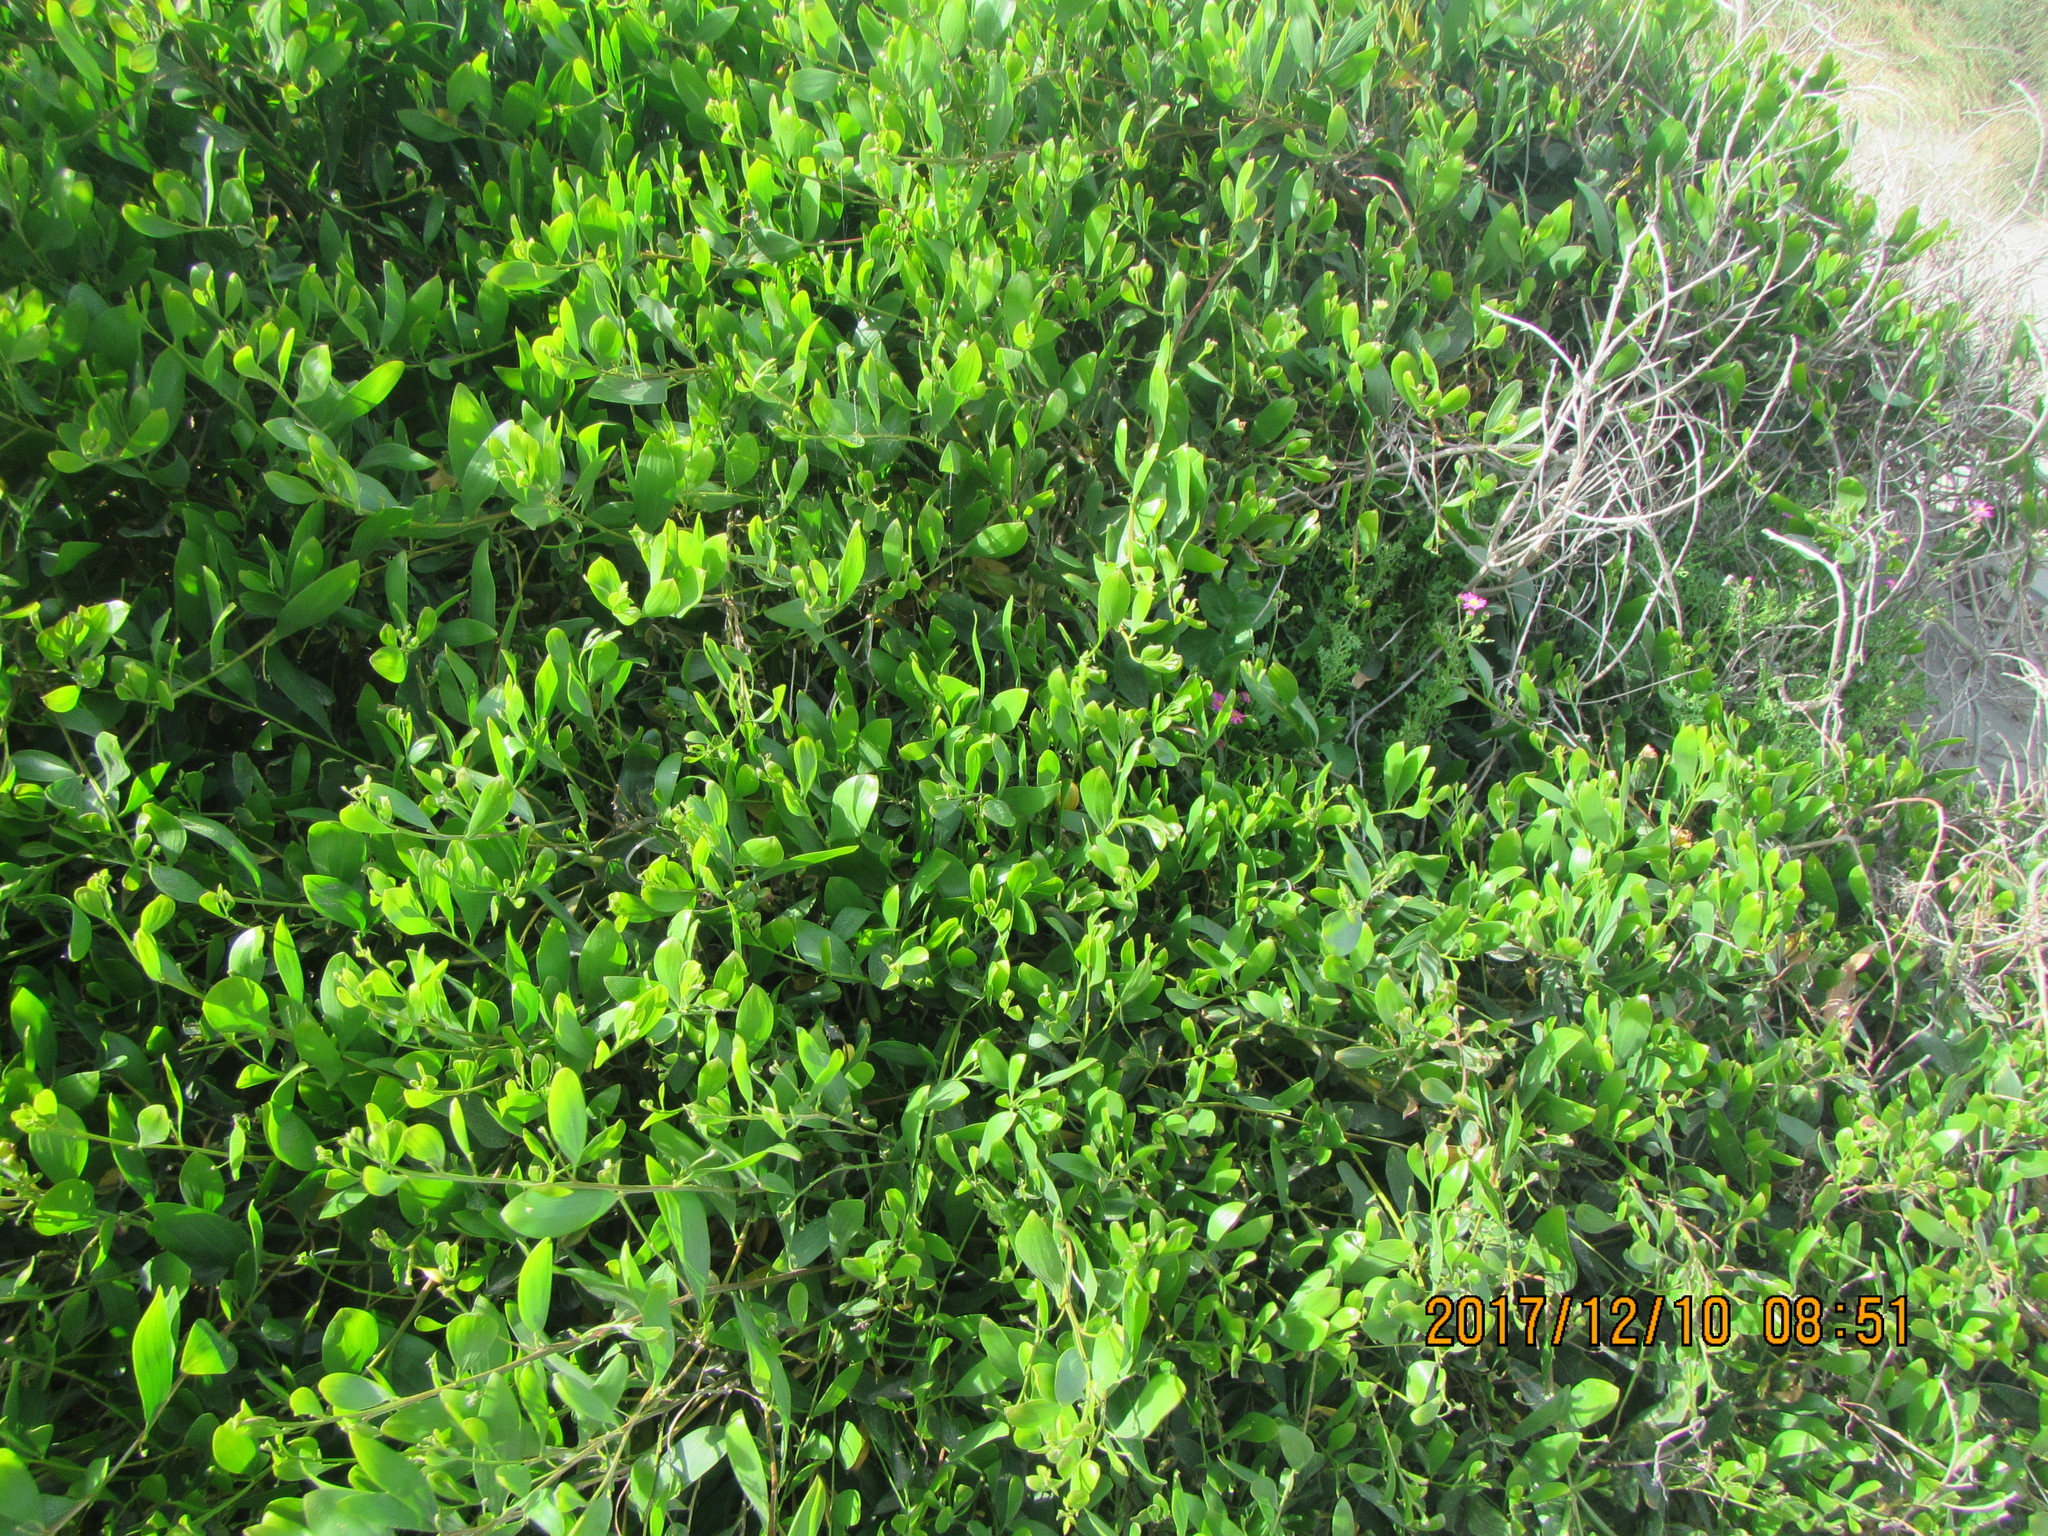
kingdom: Plantae
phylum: Tracheophyta
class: Magnoliopsida
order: Fabales
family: Fabaceae
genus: Acacia
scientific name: Acacia longifolia
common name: Sydney golden wattle
